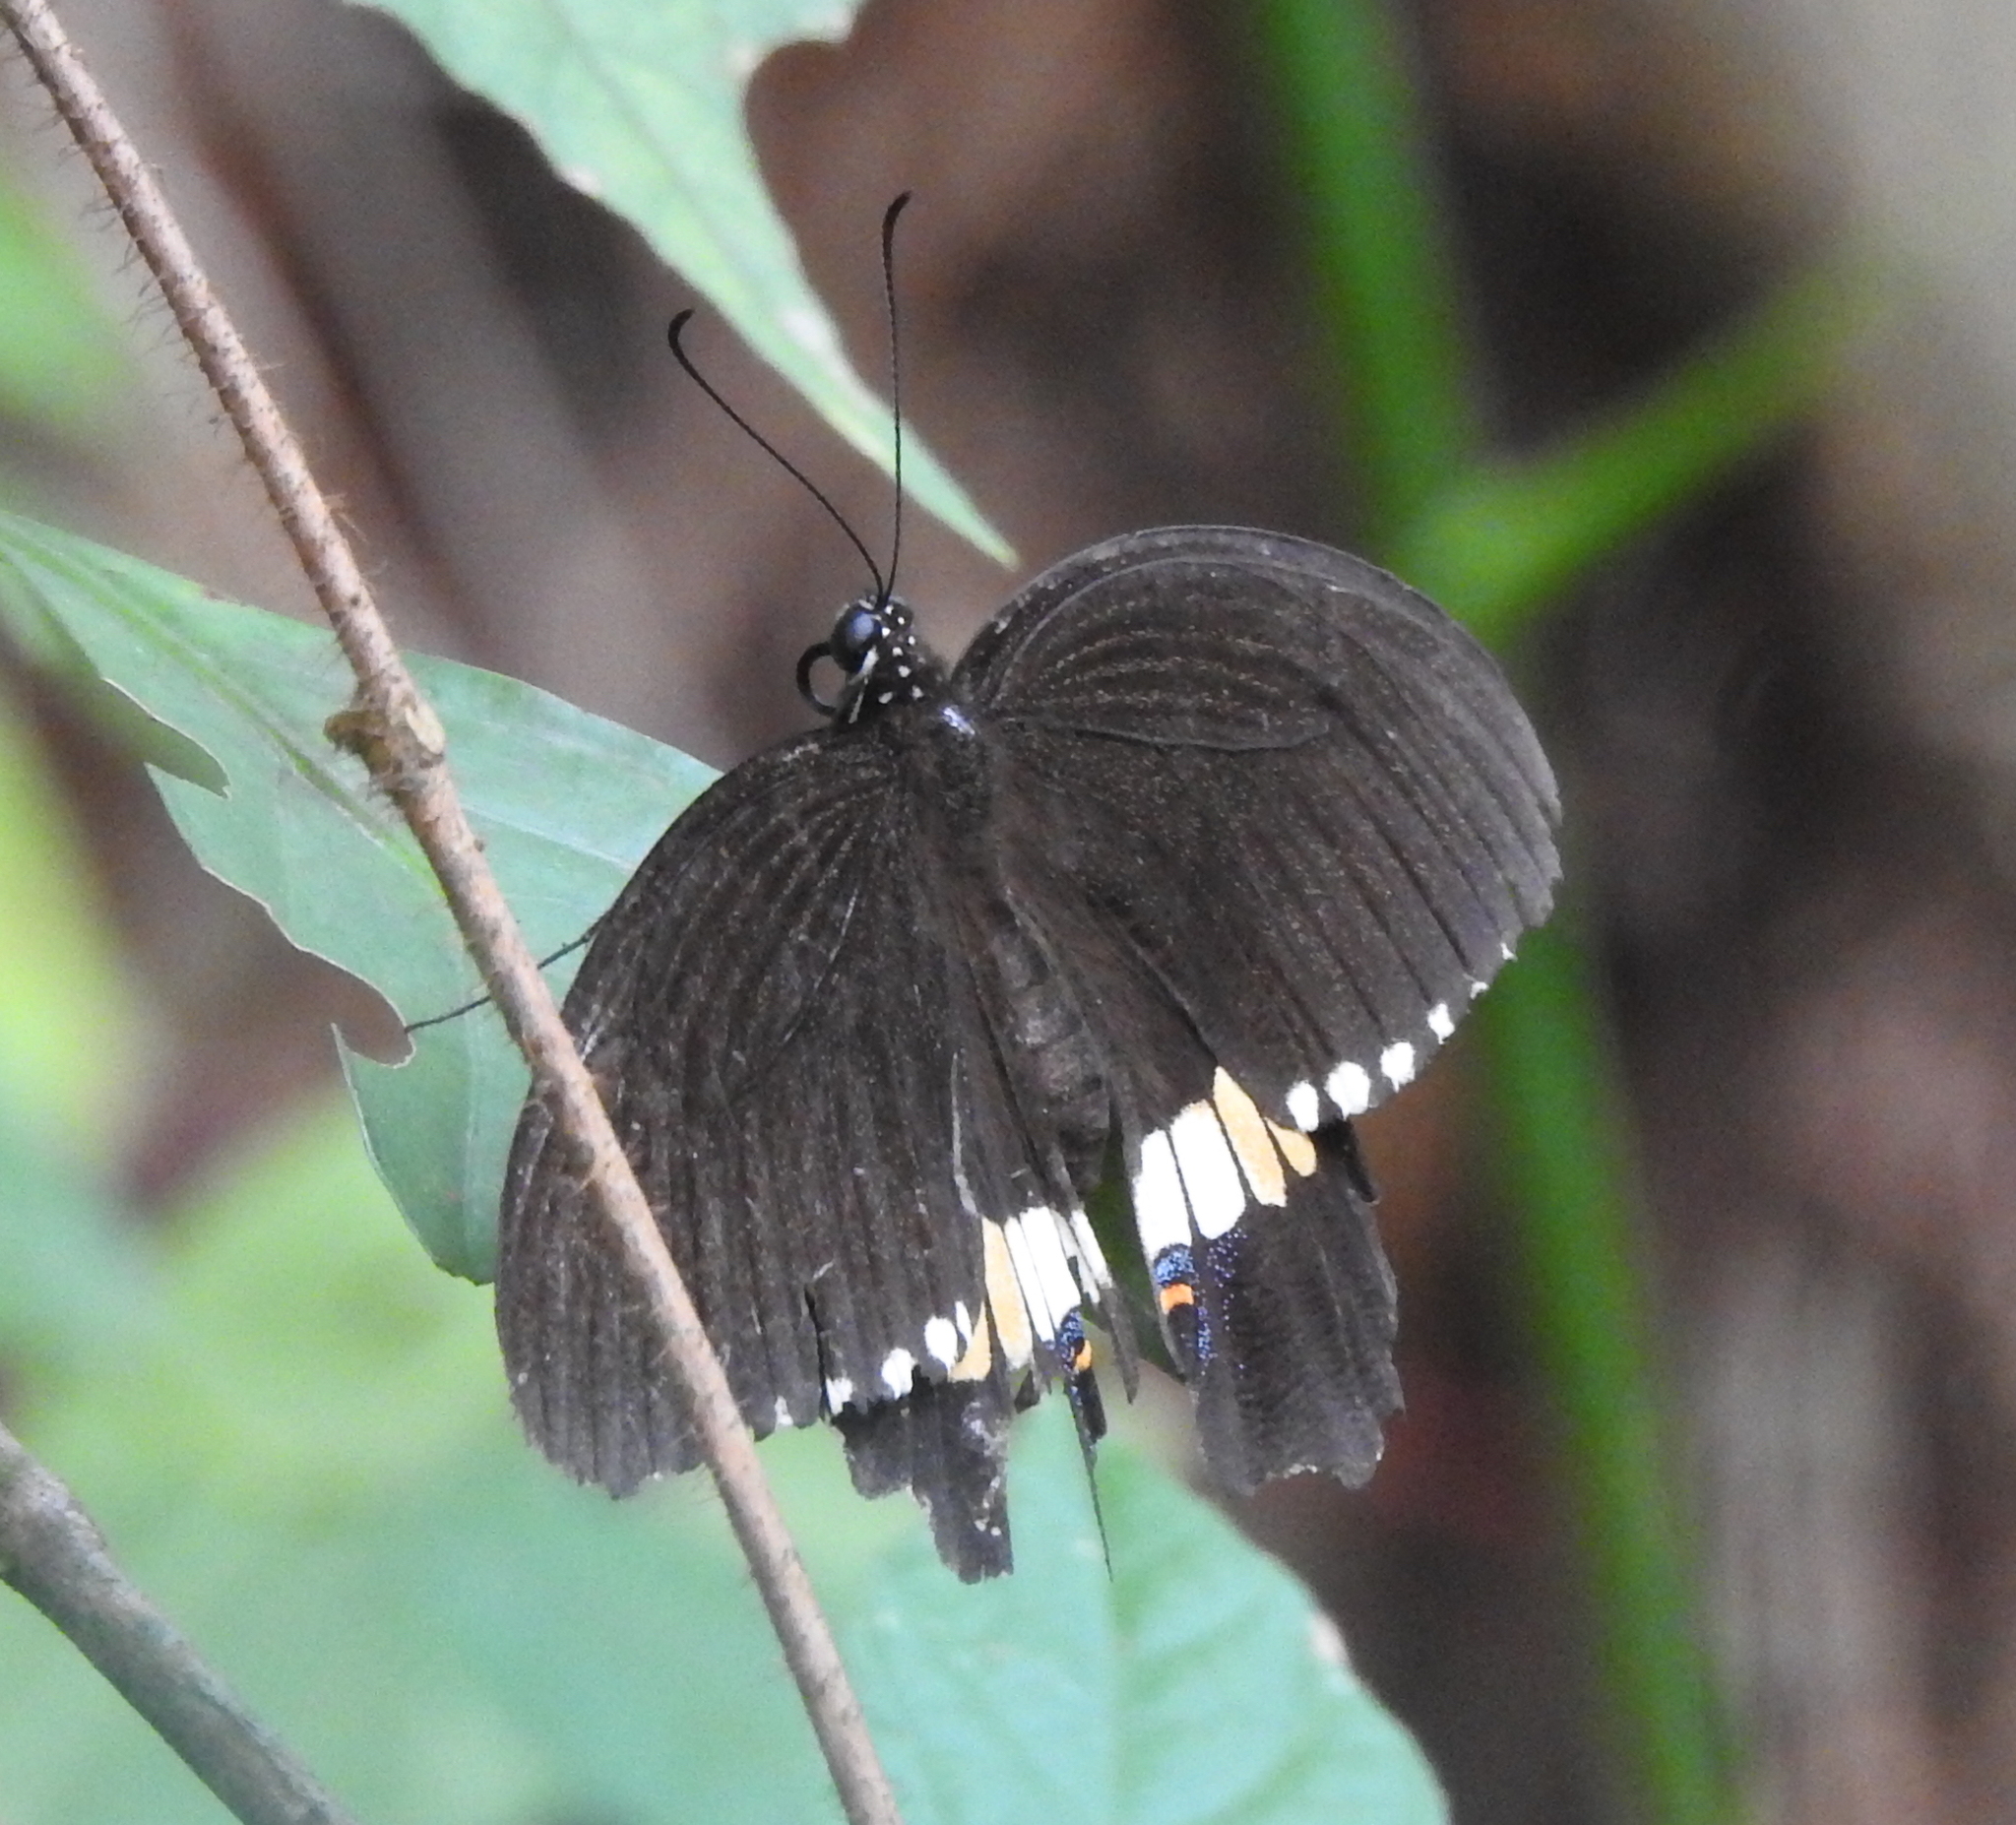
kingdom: Animalia
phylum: Arthropoda
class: Insecta
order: Lepidoptera
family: Papilionidae
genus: Papilio
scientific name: Papilio polytes
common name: Common mormon
